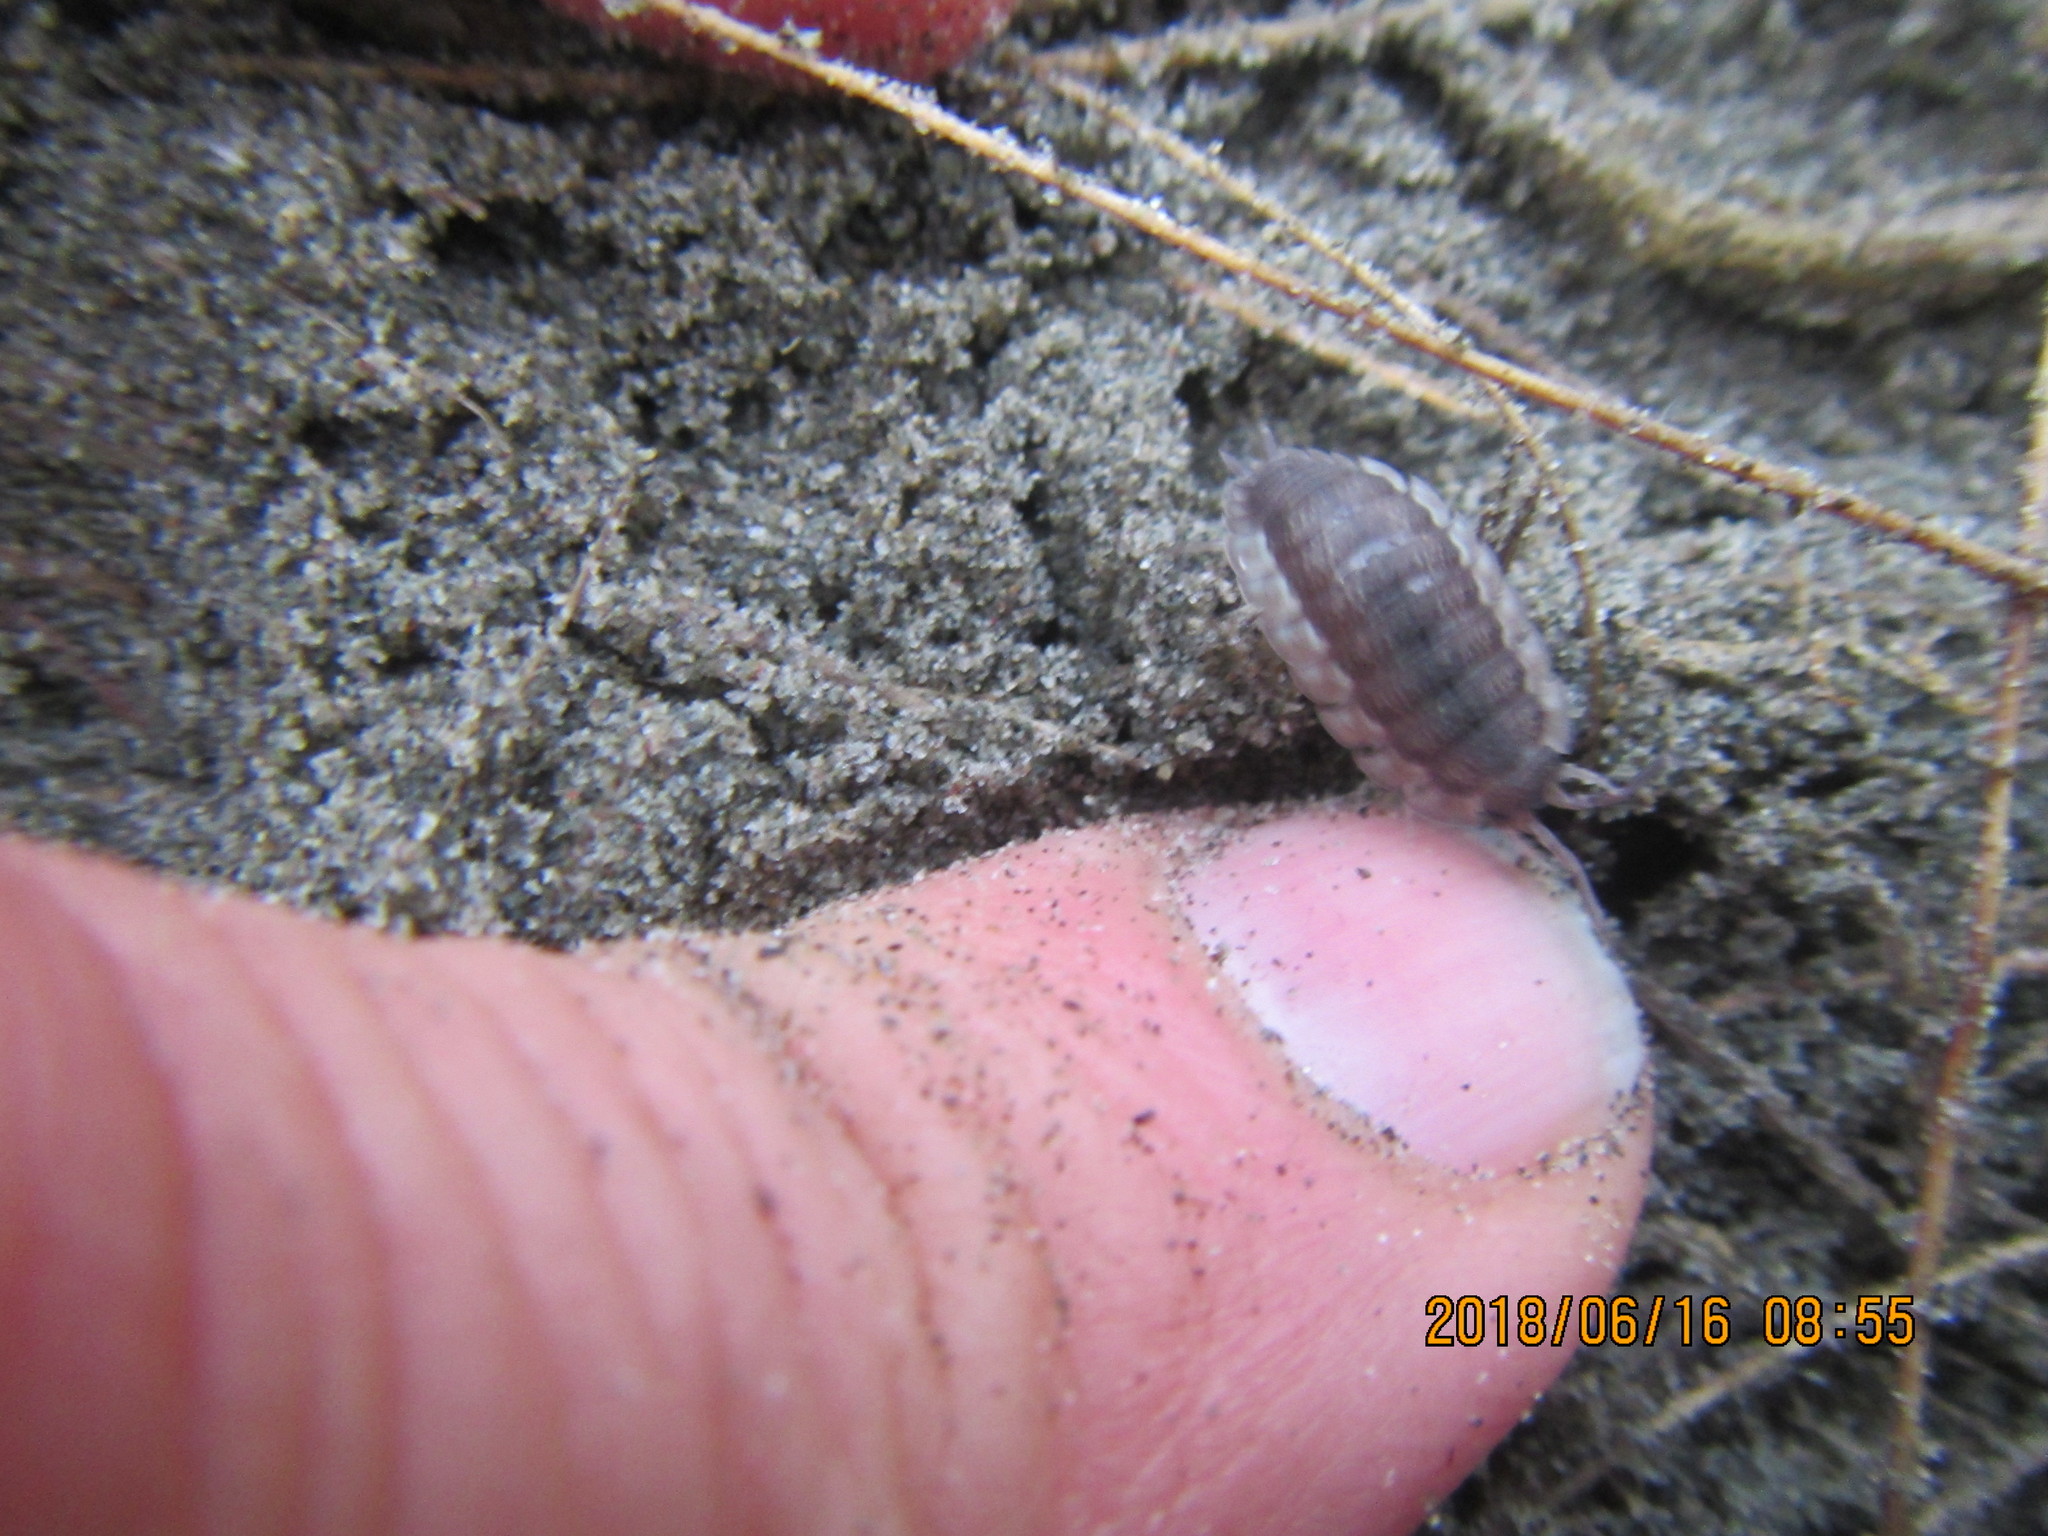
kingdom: Animalia
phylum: Arthropoda
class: Malacostraca
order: Isopoda
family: Porcellionidae
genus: Porcellio
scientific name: Porcellio scaber
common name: Common rough woodlouse
